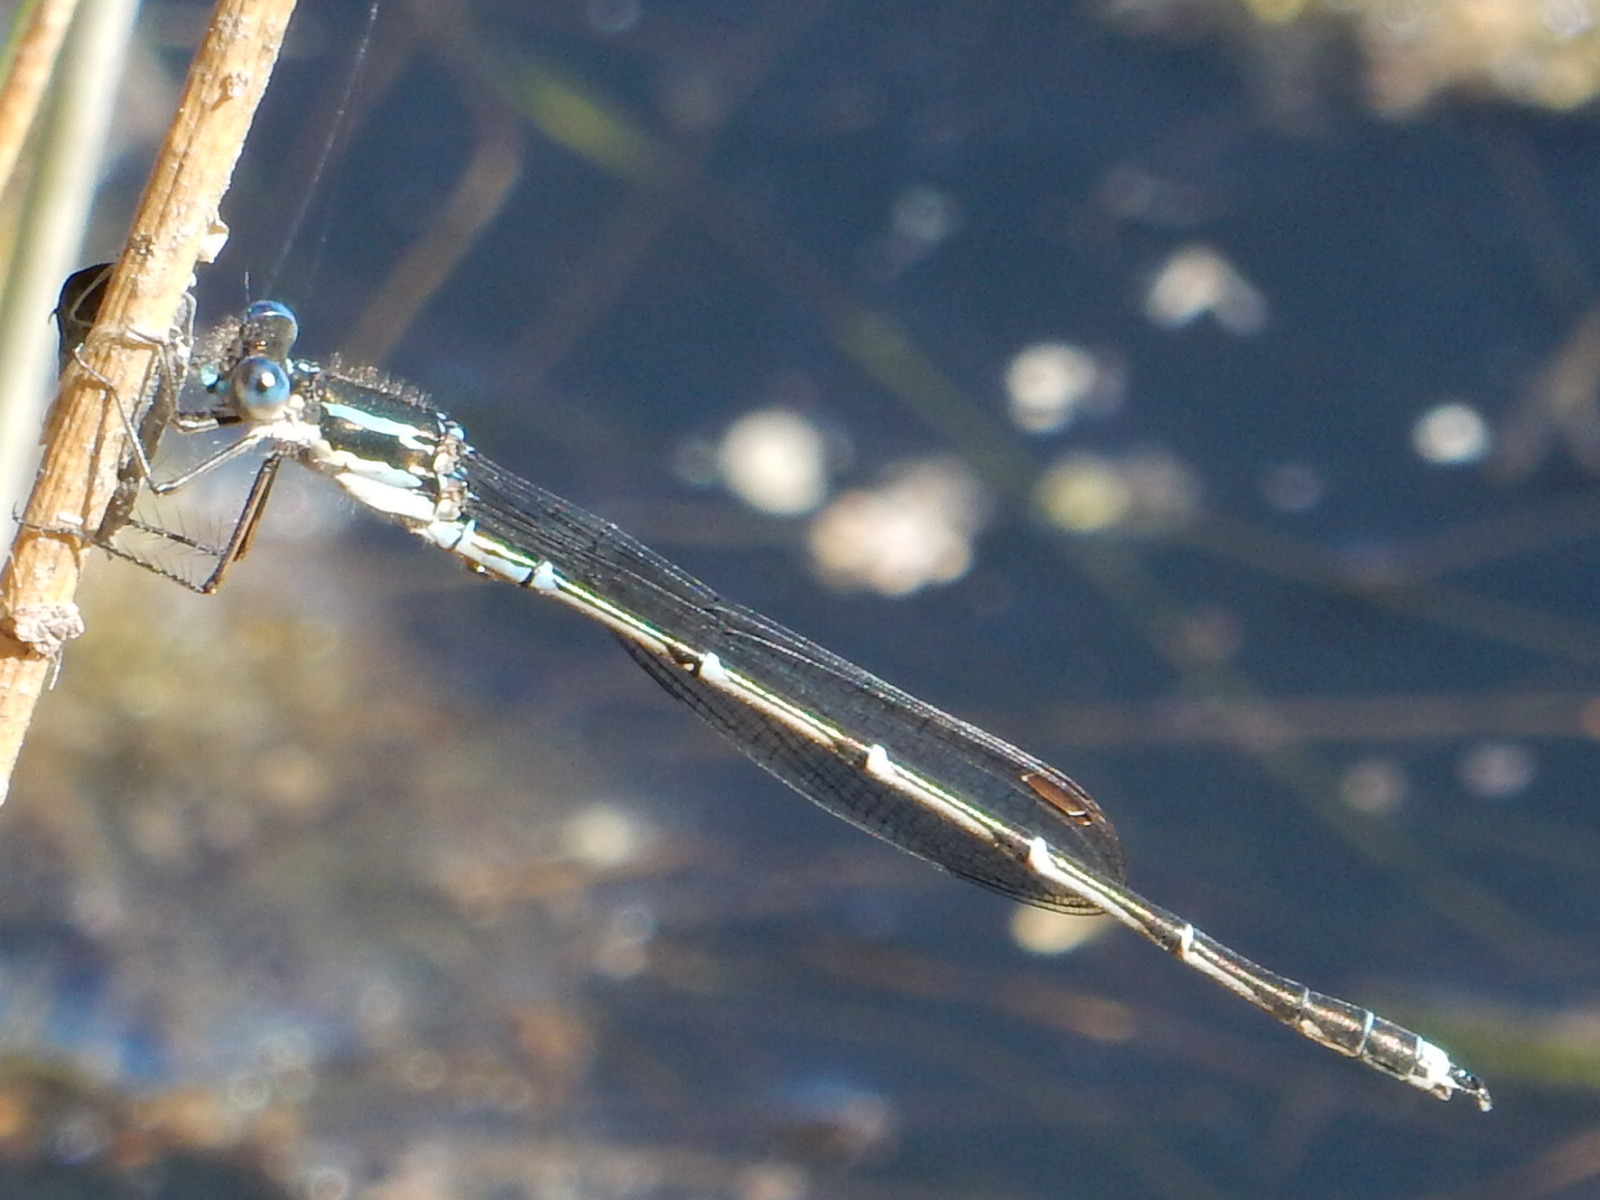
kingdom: Animalia
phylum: Arthropoda
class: Insecta
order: Odonata
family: Lestidae
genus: Austrolestes
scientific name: Austrolestes colensonis
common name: Blue damselfly
